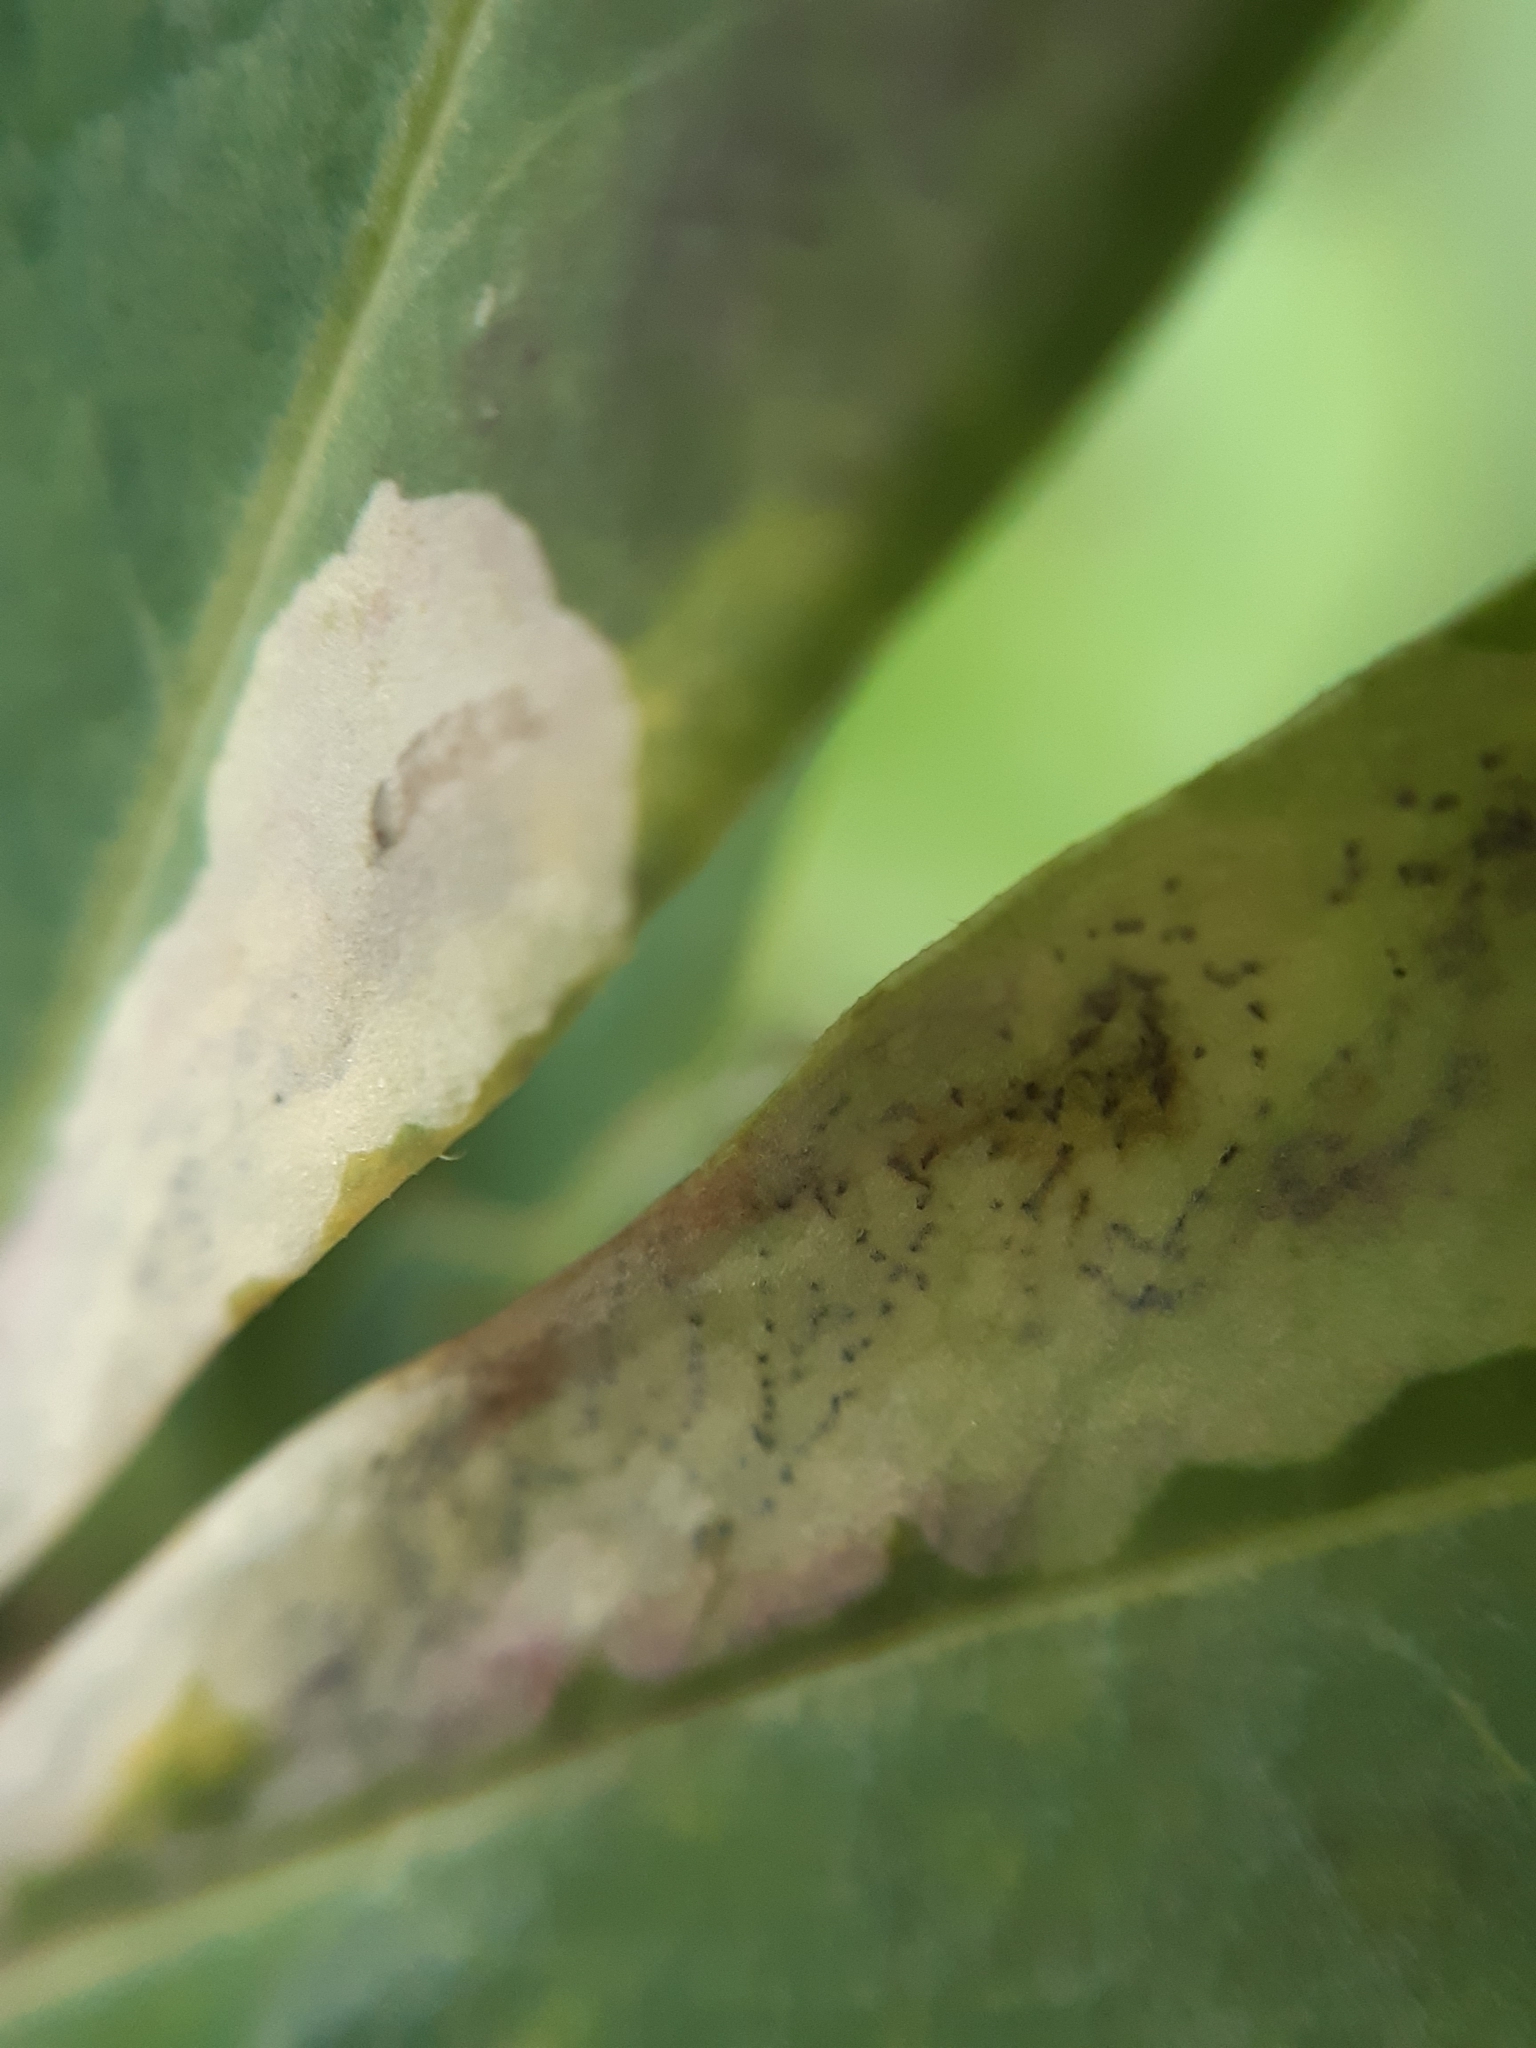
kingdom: Animalia
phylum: Arthropoda
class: Insecta
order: Diptera
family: Agromyzidae
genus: Liriomyza
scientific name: Liriomyza approximata
